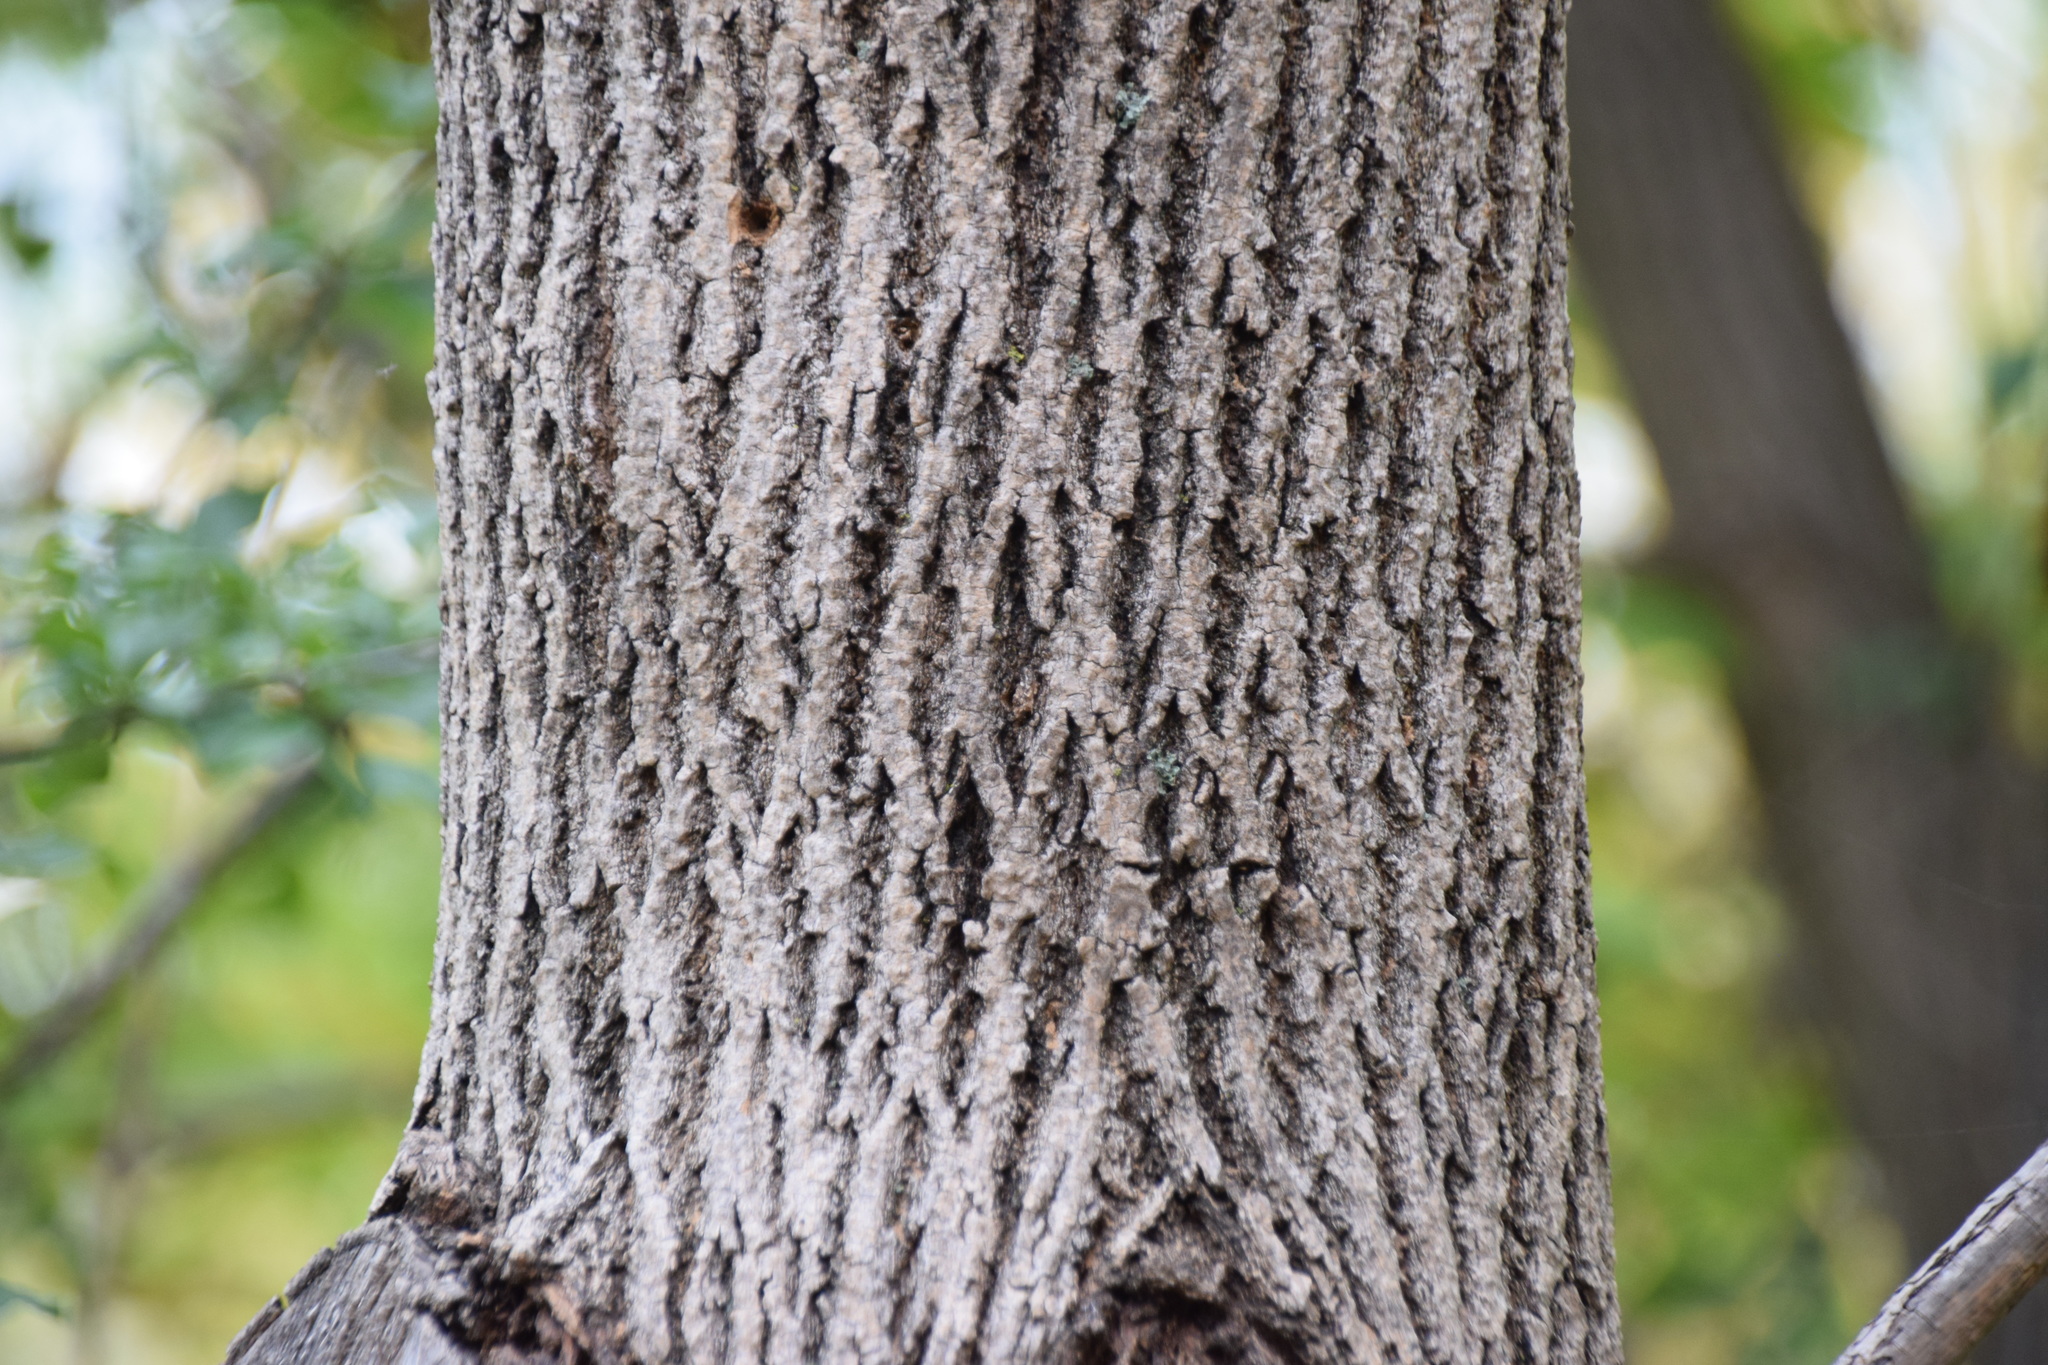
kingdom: Plantae
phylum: Tracheophyta
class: Magnoliopsida
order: Lamiales
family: Oleaceae
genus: Fraxinus
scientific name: Fraxinus americana
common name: White ash
